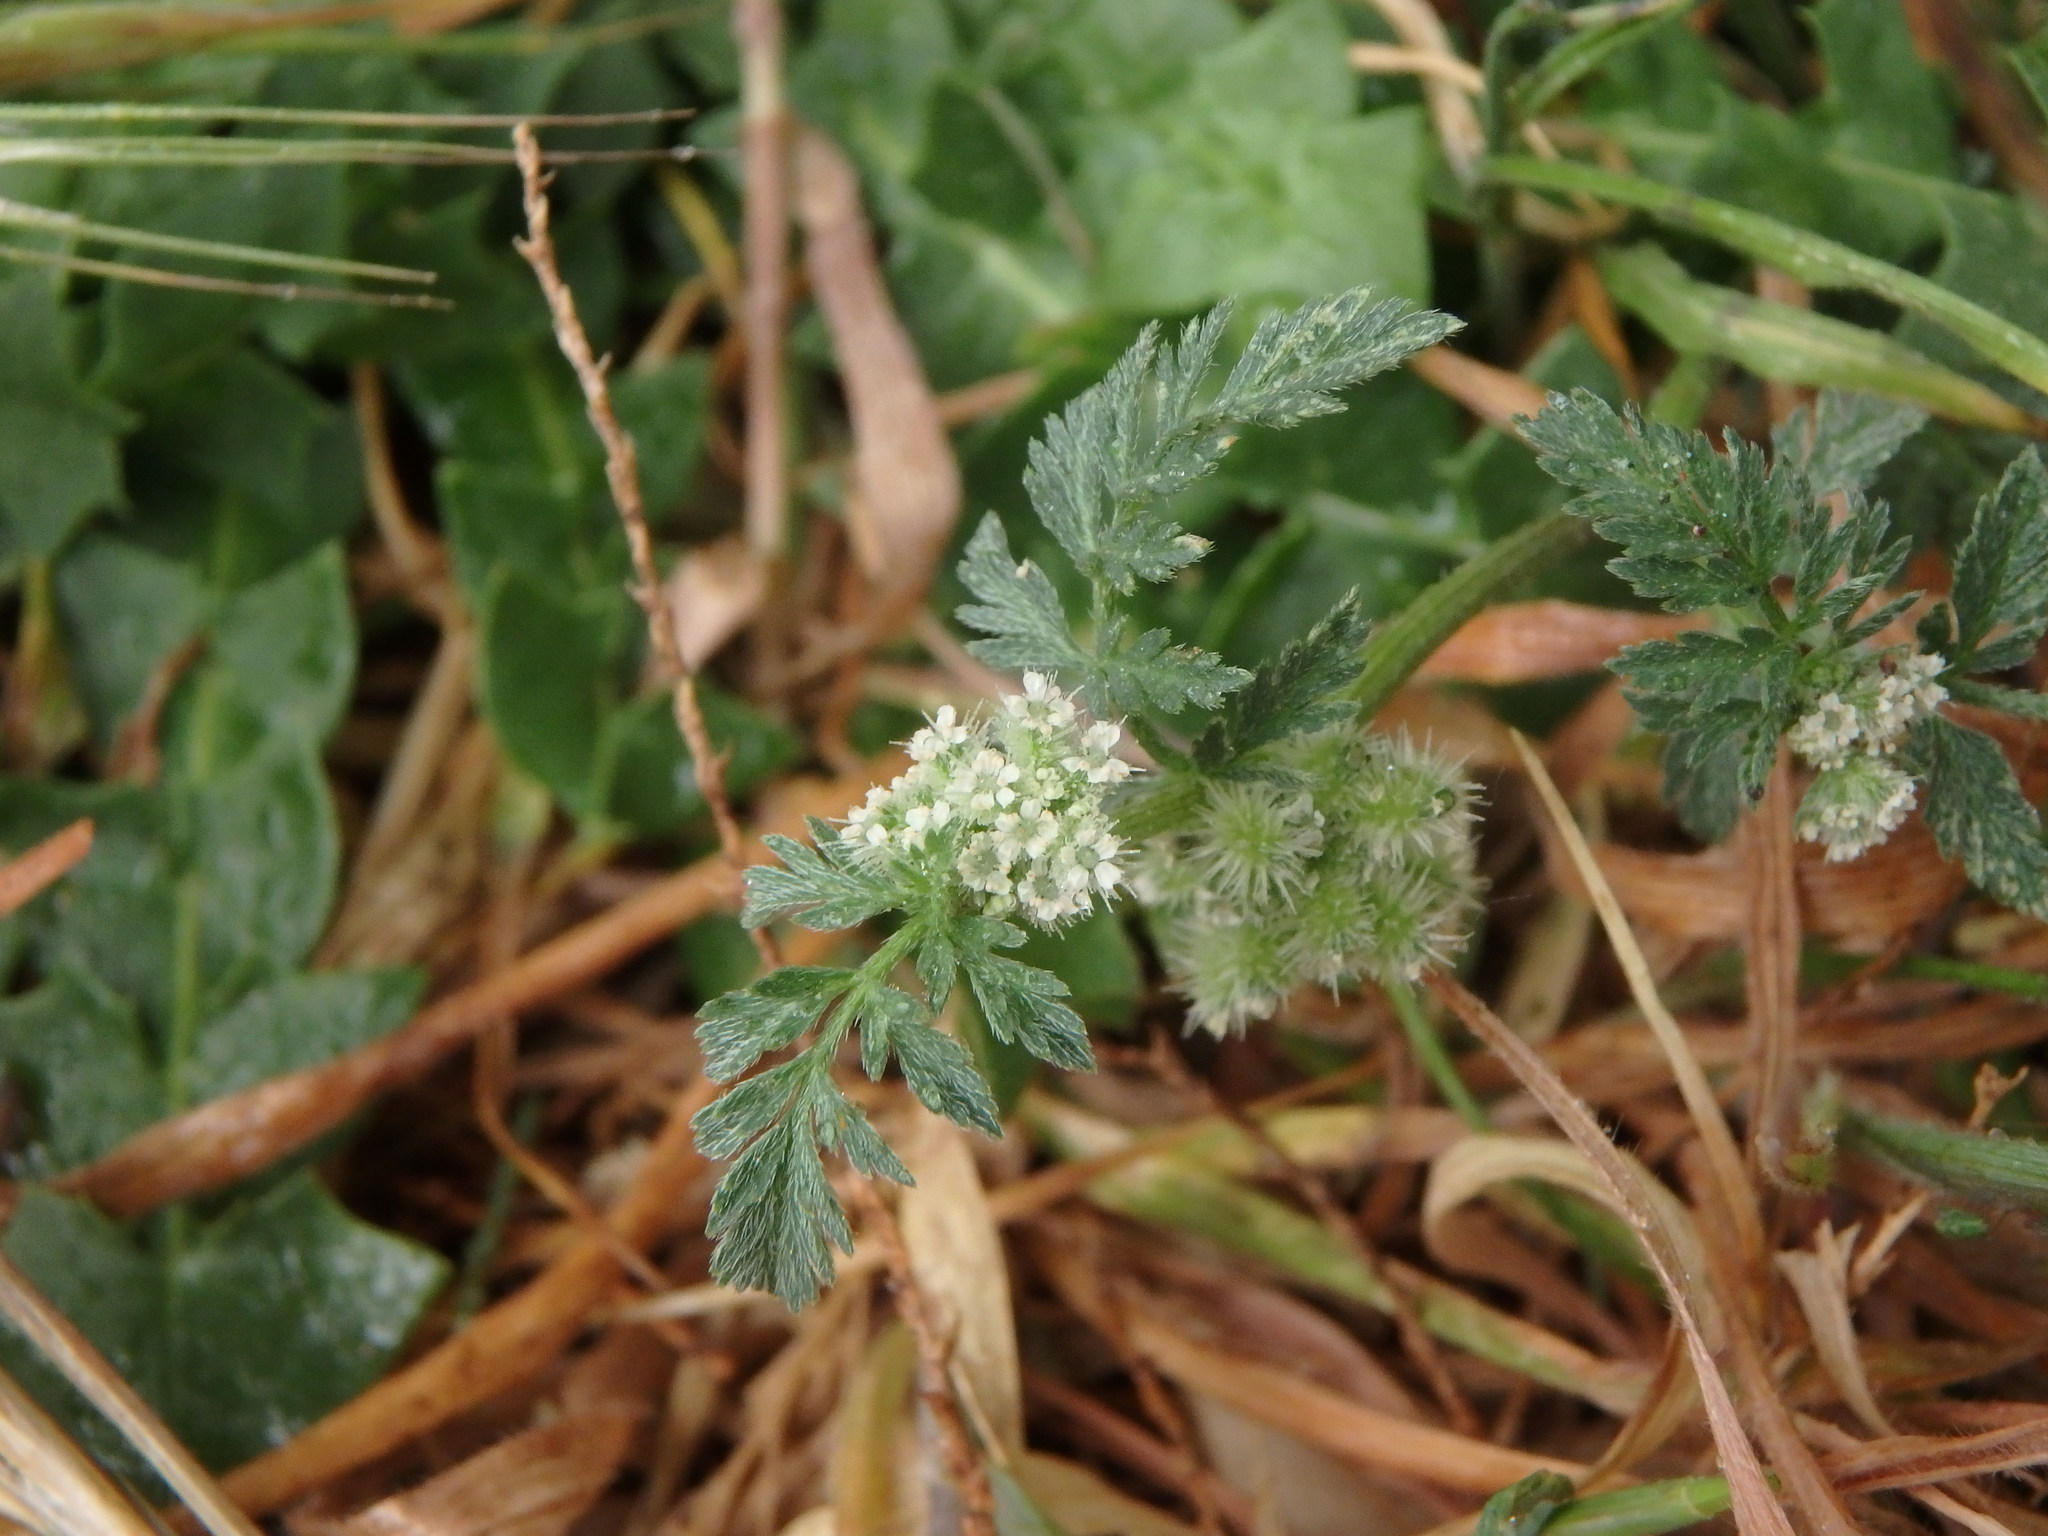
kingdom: Plantae
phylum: Tracheophyta
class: Magnoliopsida
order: Apiales
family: Apiaceae
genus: Torilis
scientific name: Torilis nodosa
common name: Knotted hedge-parsley
